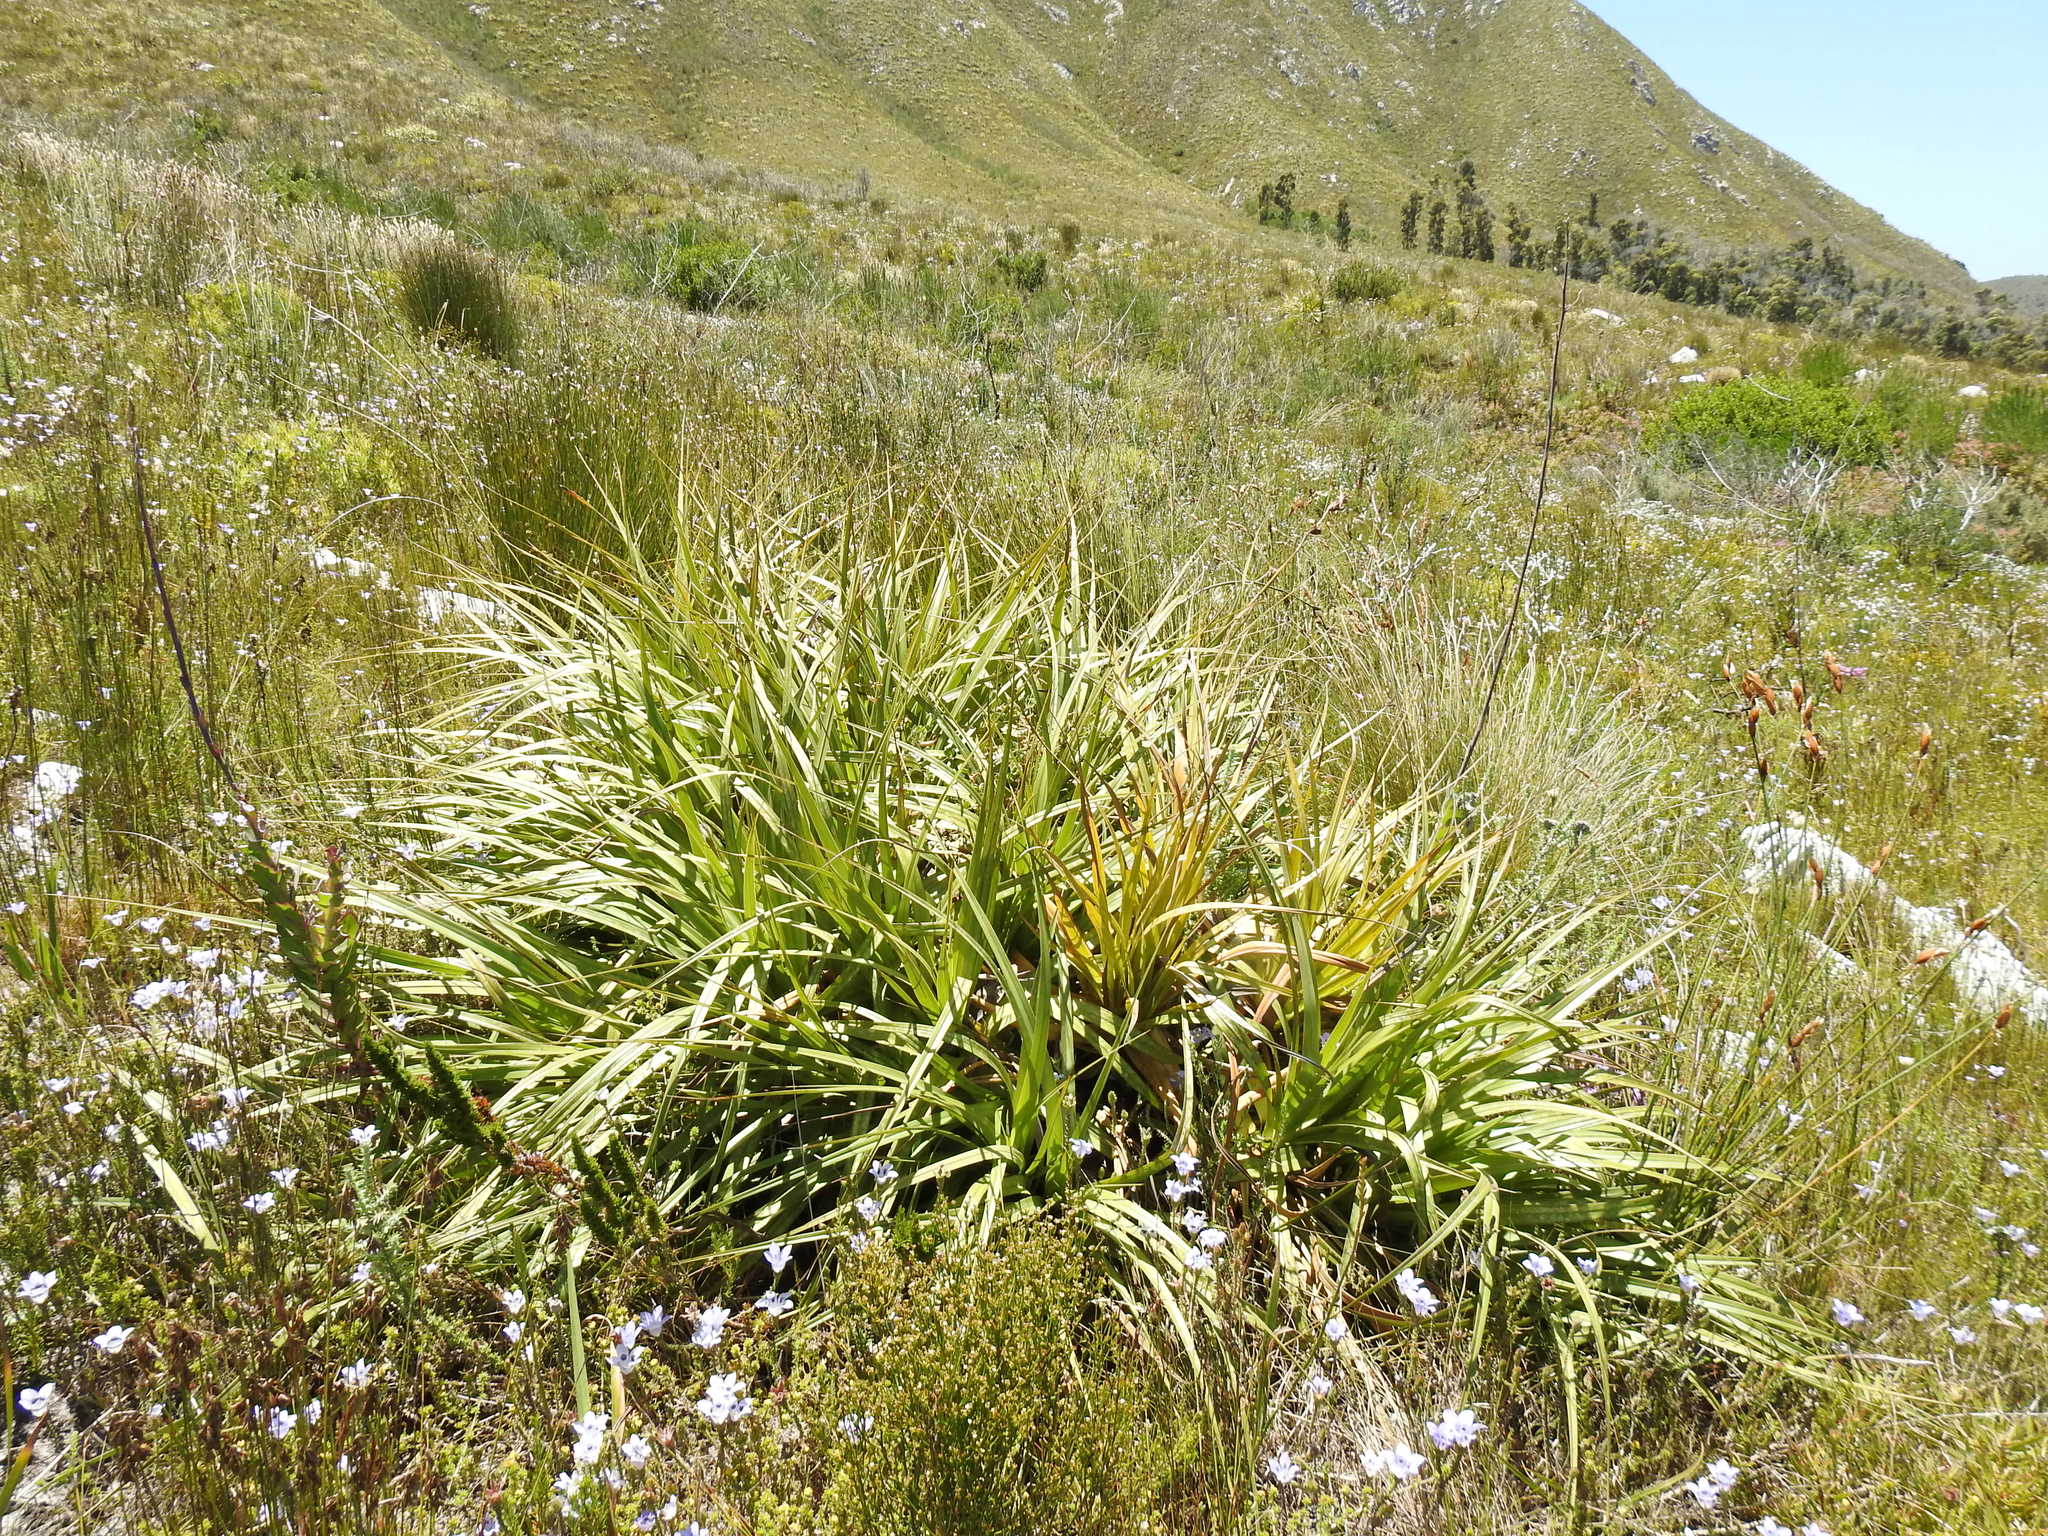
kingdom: Plantae
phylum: Tracheophyta
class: Liliopsida
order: Poales
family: Thurniaceae
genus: Prionium
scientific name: Prionium serratum
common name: Palmiet
